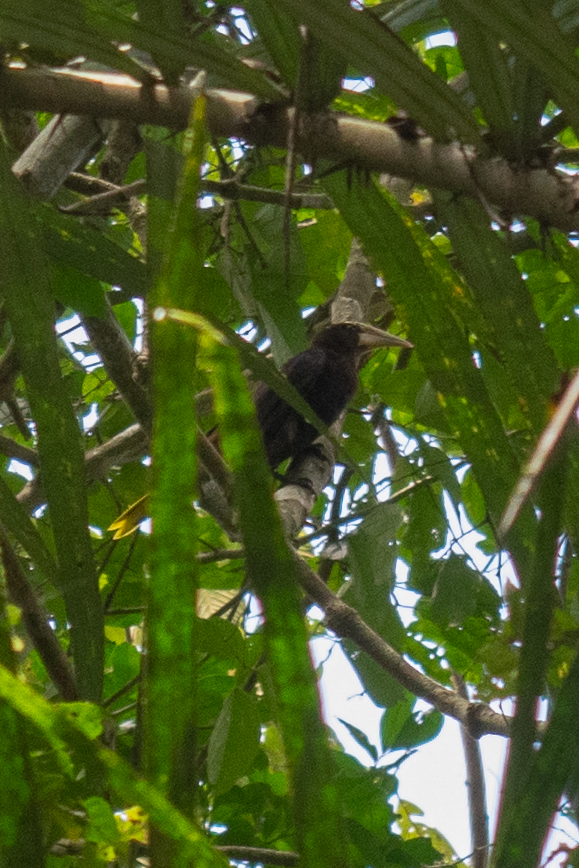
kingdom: Animalia
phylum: Chordata
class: Aves
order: Passeriformes
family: Icteridae
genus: Psarocolius
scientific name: Psarocolius wagleri
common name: Chestnut-headed oropendola
